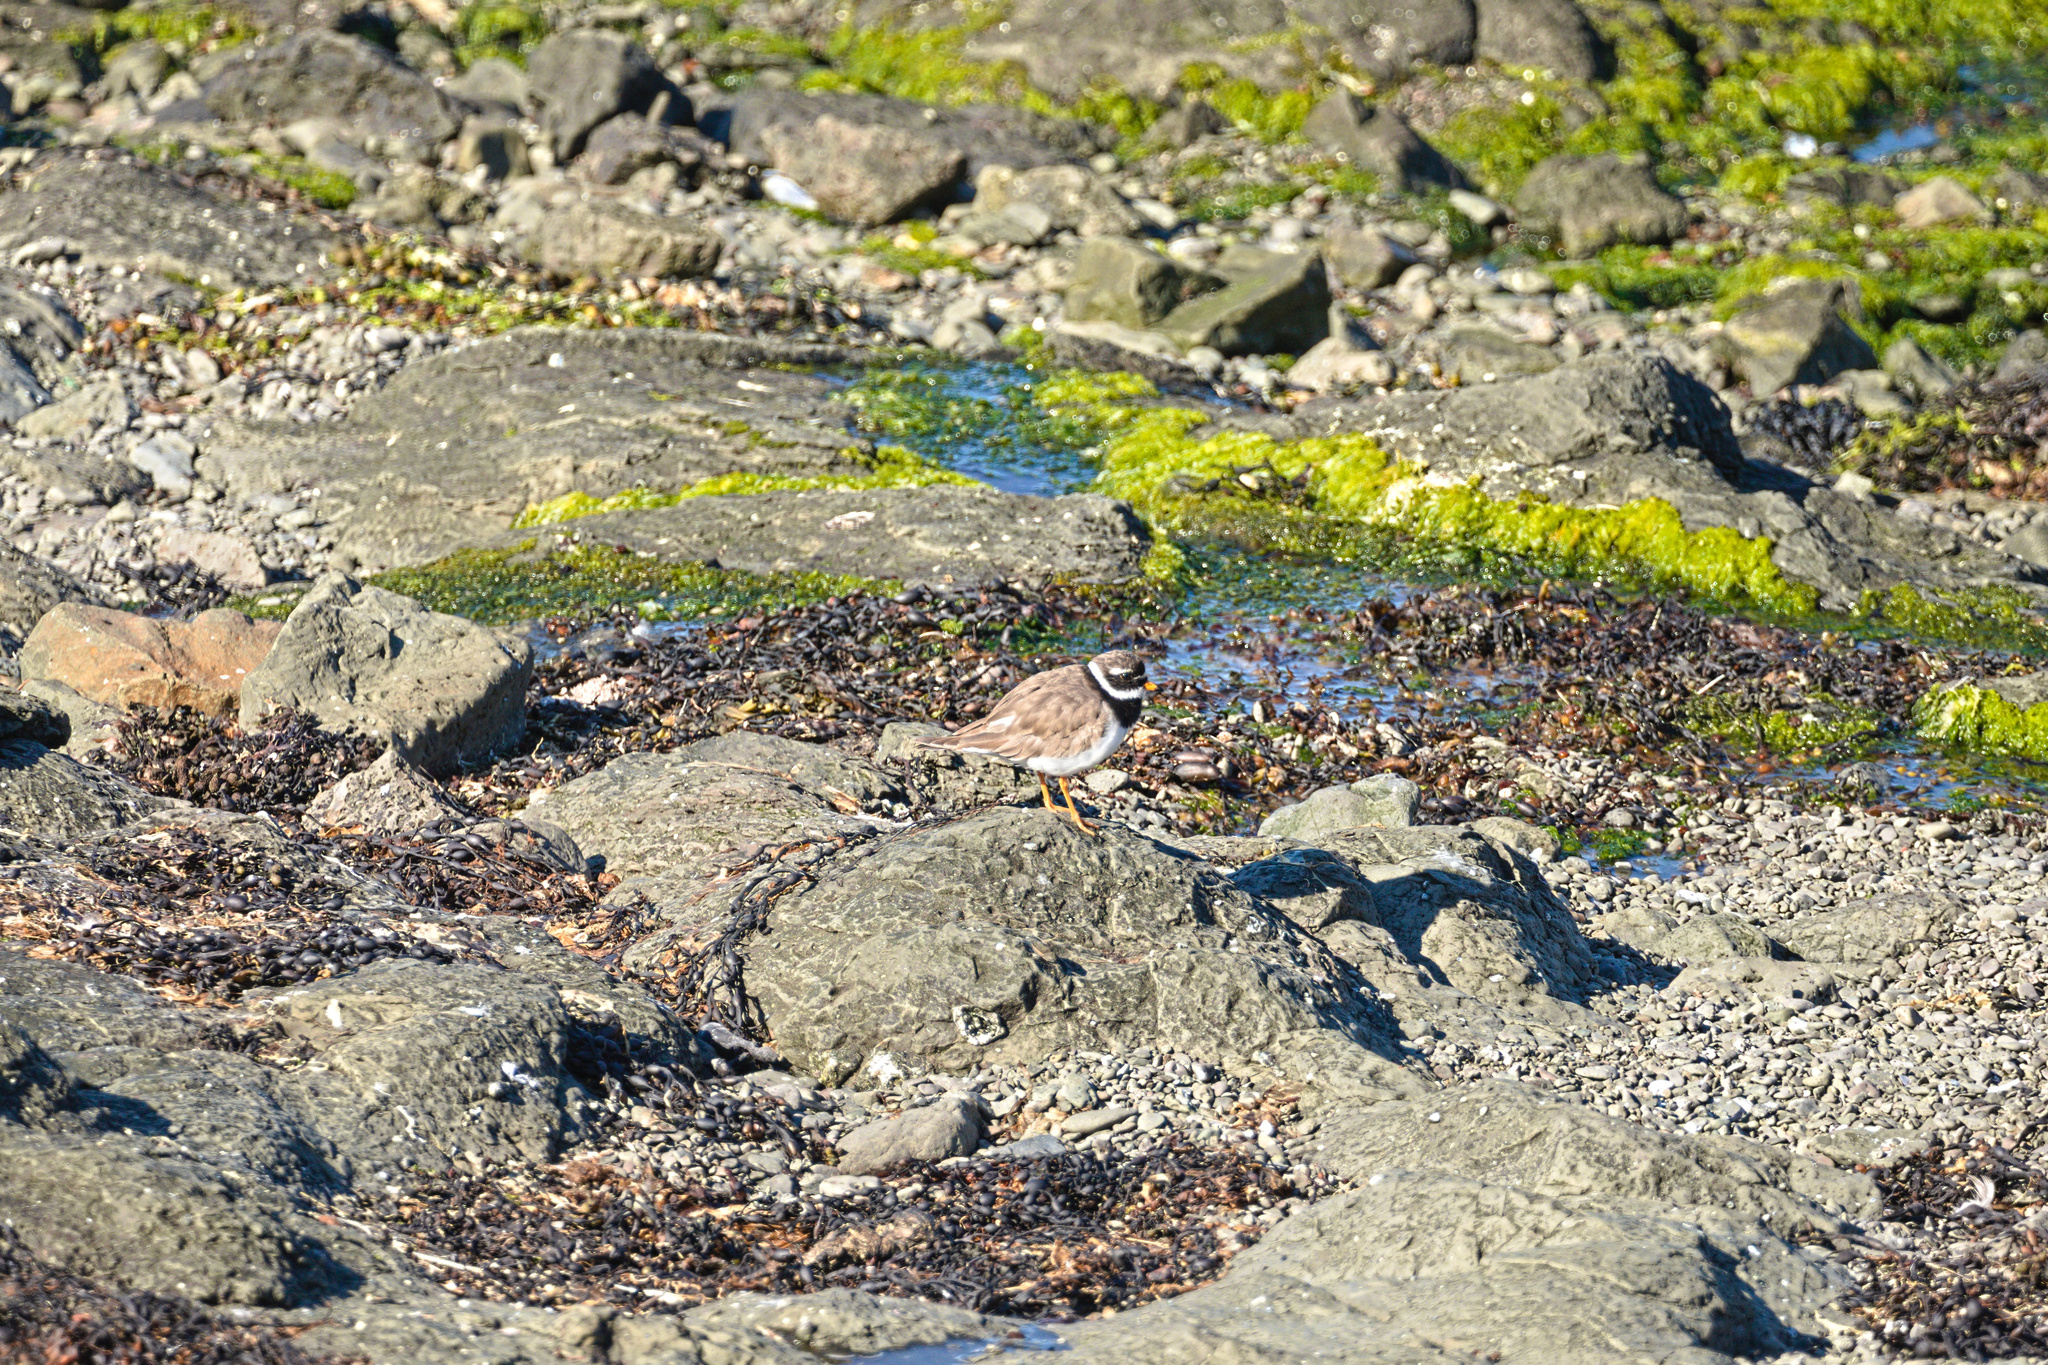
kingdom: Animalia
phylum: Chordata
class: Aves
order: Charadriiformes
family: Charadriidae
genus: Charadrius
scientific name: Charadrius hiaticula
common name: Common ringed plover
